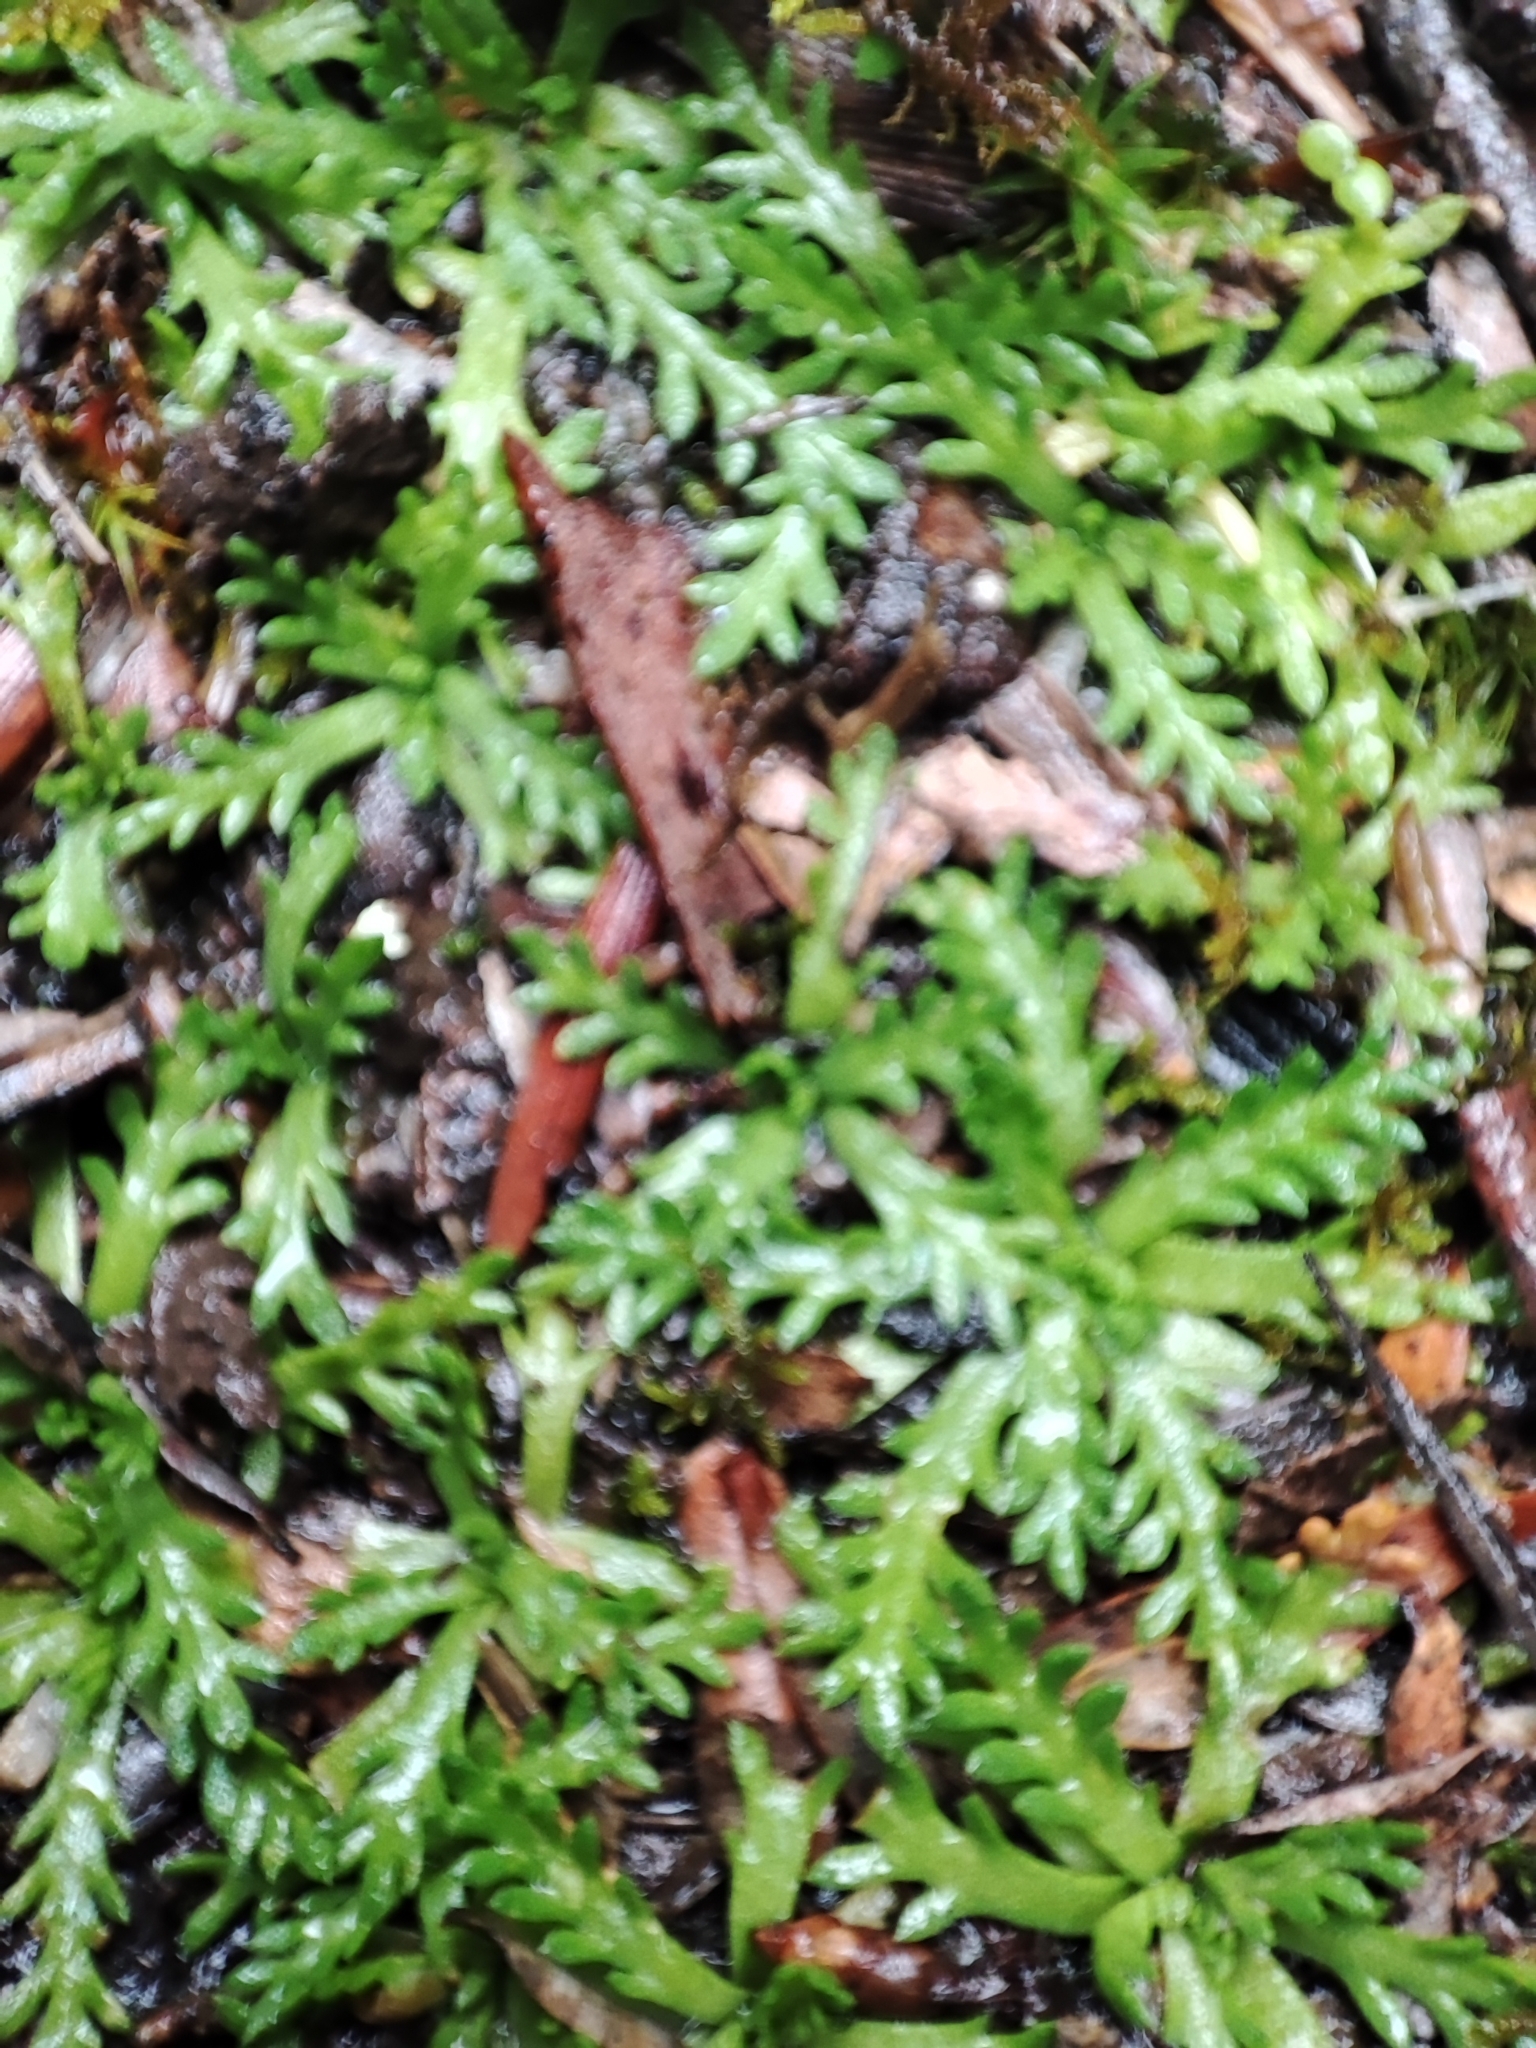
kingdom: Plantae
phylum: Tracheophyta
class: Magnoliopsida
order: Asterales
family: Asteraceae
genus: Cotula
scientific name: Cotula alpina
